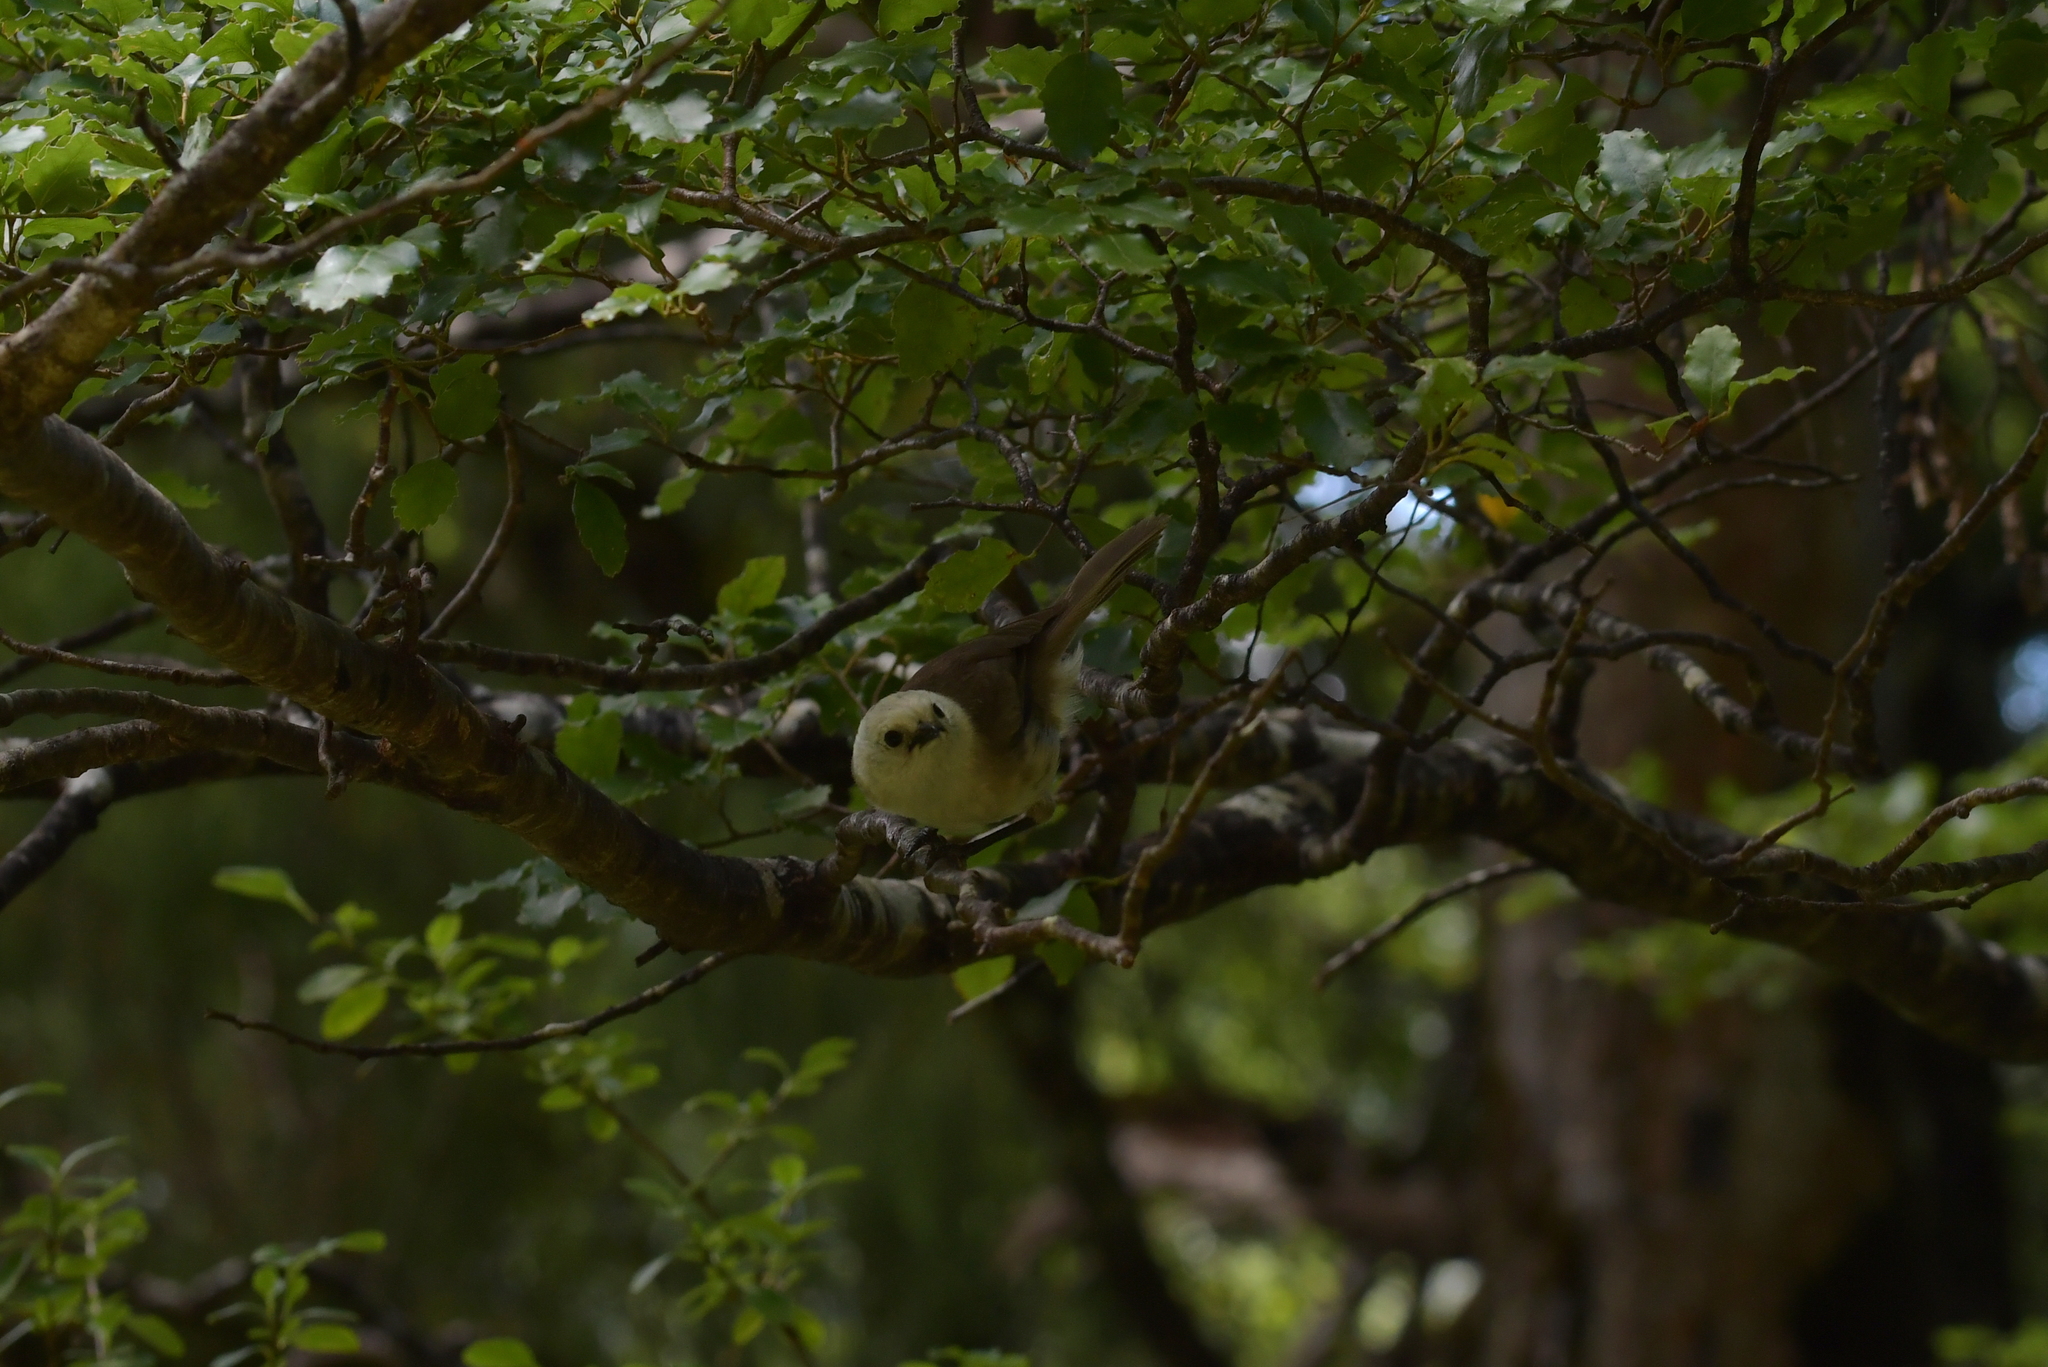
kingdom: Animalia
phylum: Chordata
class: Aves
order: Passeriformes
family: Acanthizidae
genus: Mohoua
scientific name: Mohoua albicilla
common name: Whitehead
